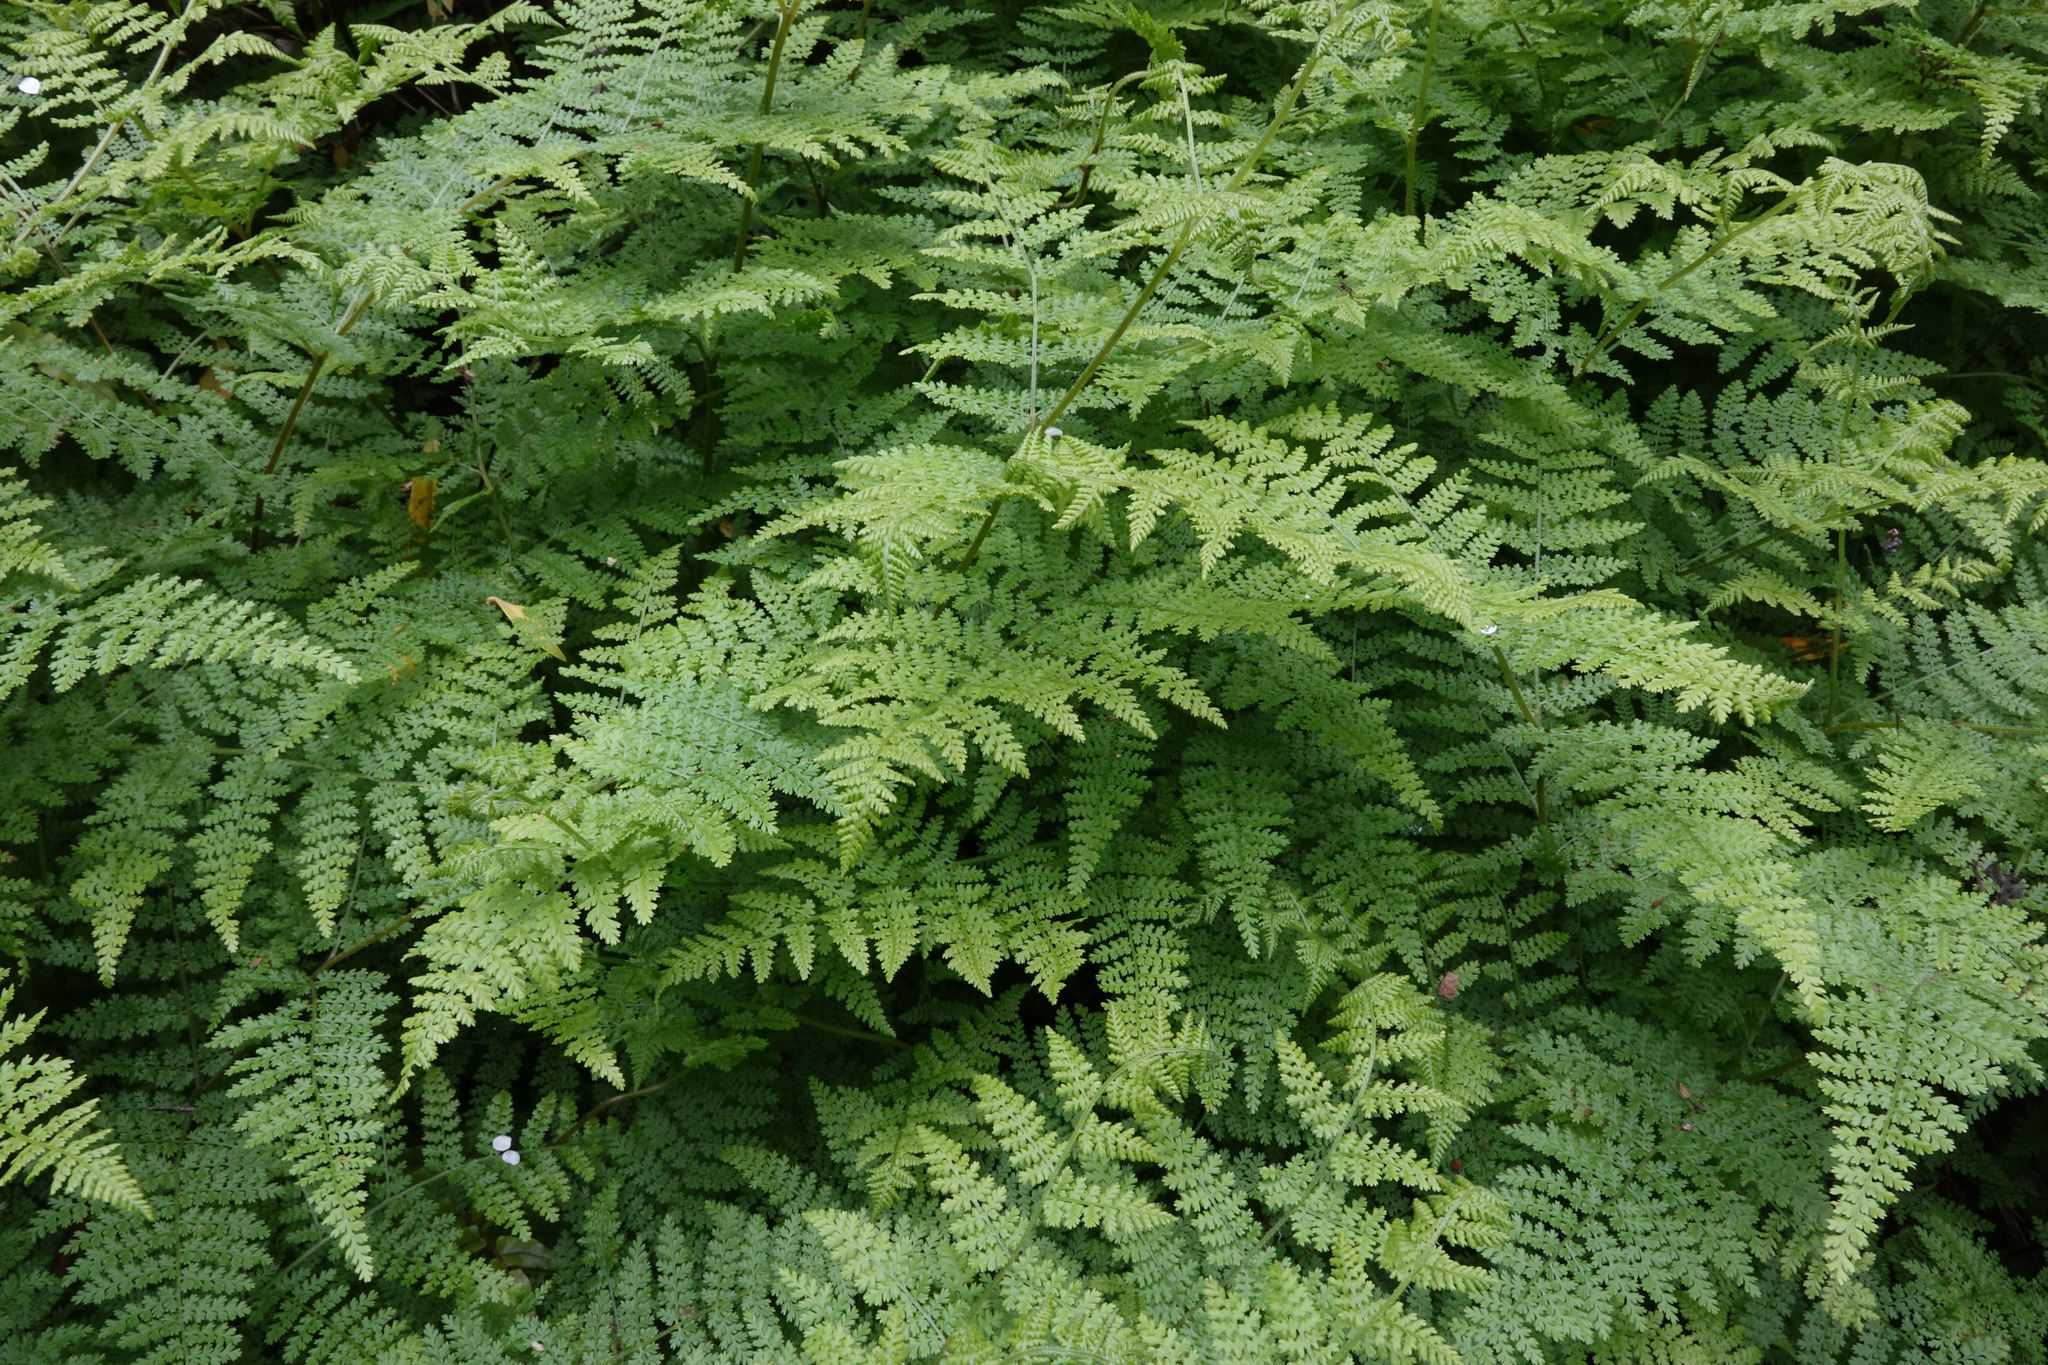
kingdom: Plantae
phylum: Tracheophyta
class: Polypodiopsida
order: Polypodiales
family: Dennstaedtiaceae
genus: Hypolepis
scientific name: Hypolepis millefolium
